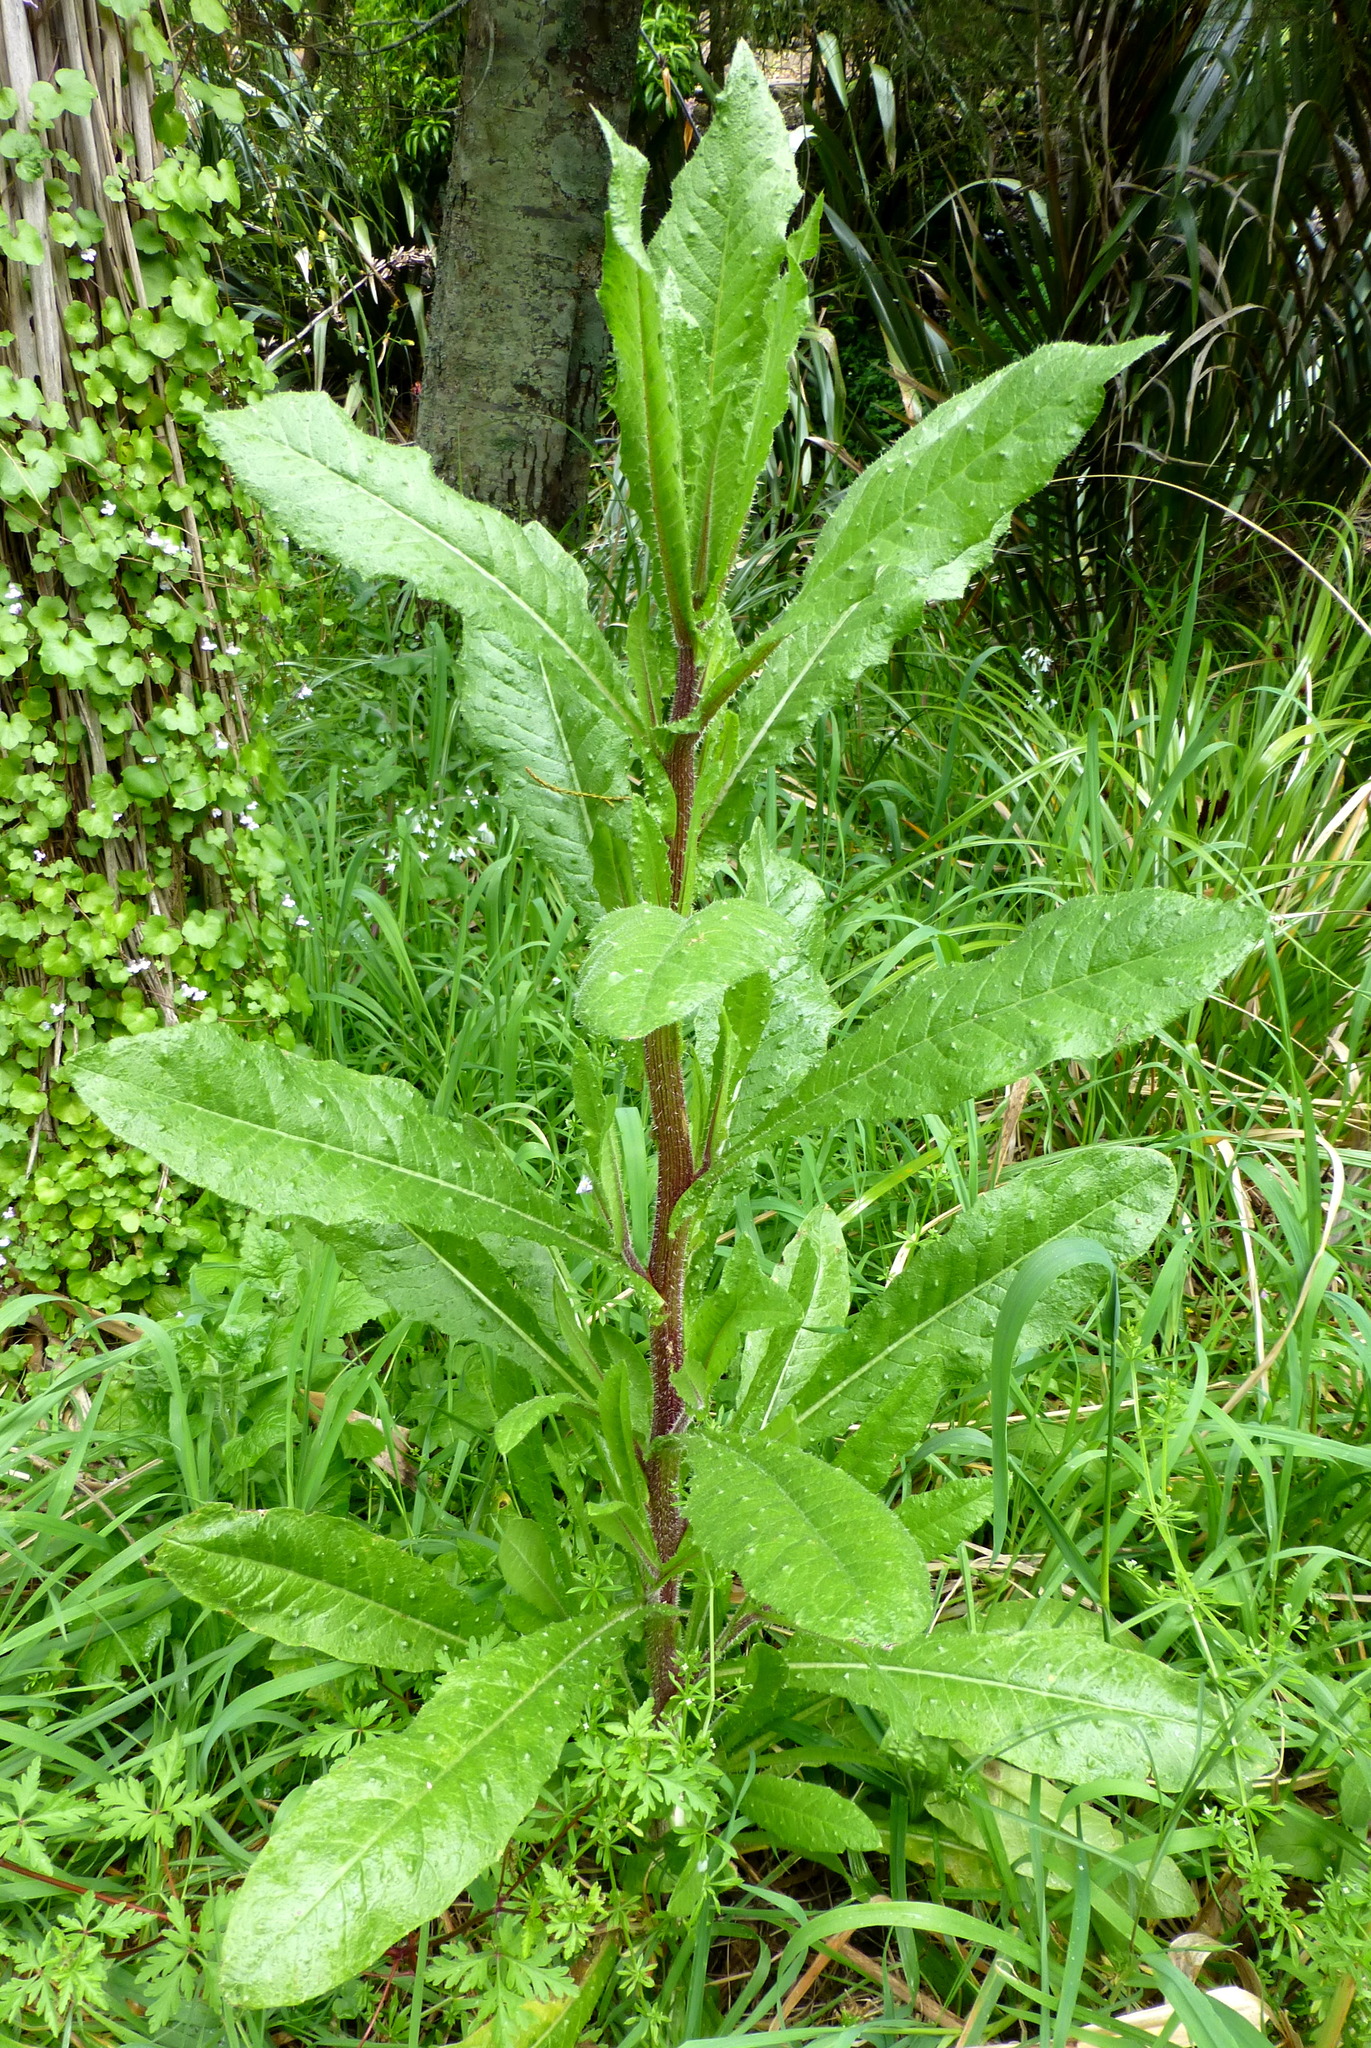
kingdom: Plantae
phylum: Tracheophyta
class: Magnoliopsida
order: Asterales
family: Asteraceae
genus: Helminthotheca
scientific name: Helminthotheca echioides
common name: Ox-tongue
